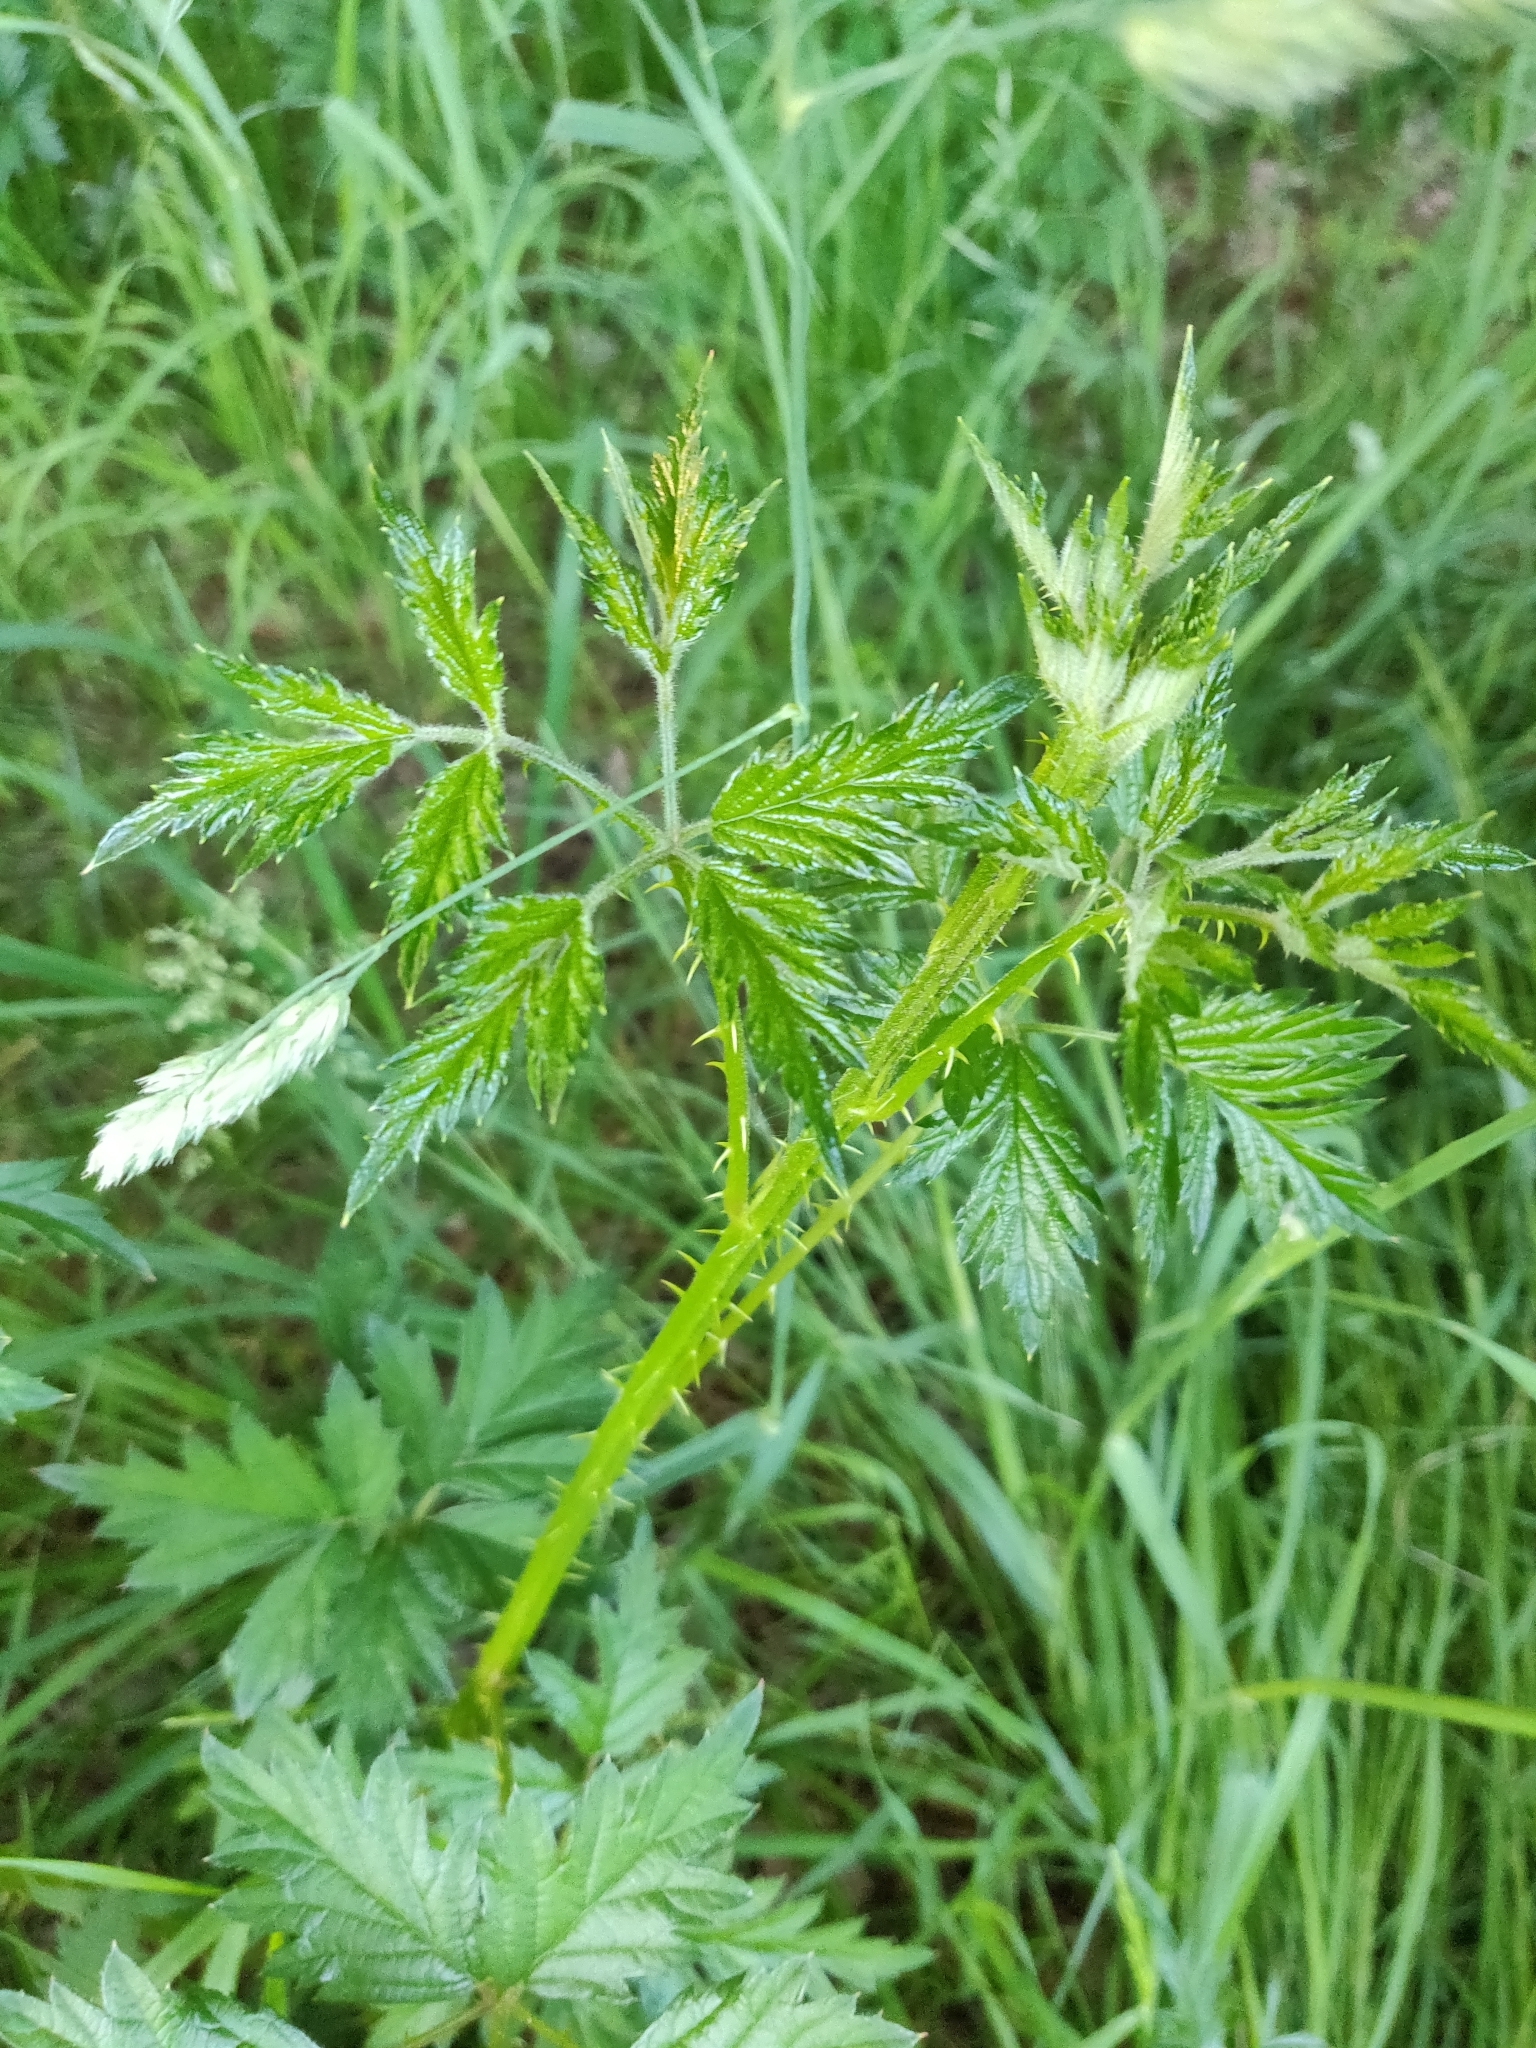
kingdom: Plantae
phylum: Tracheophyta
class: Magnoliopsida
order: Rosales
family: Rosaceae
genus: Rubus
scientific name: Rubus laciniatus
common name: Evergreen blackberry
